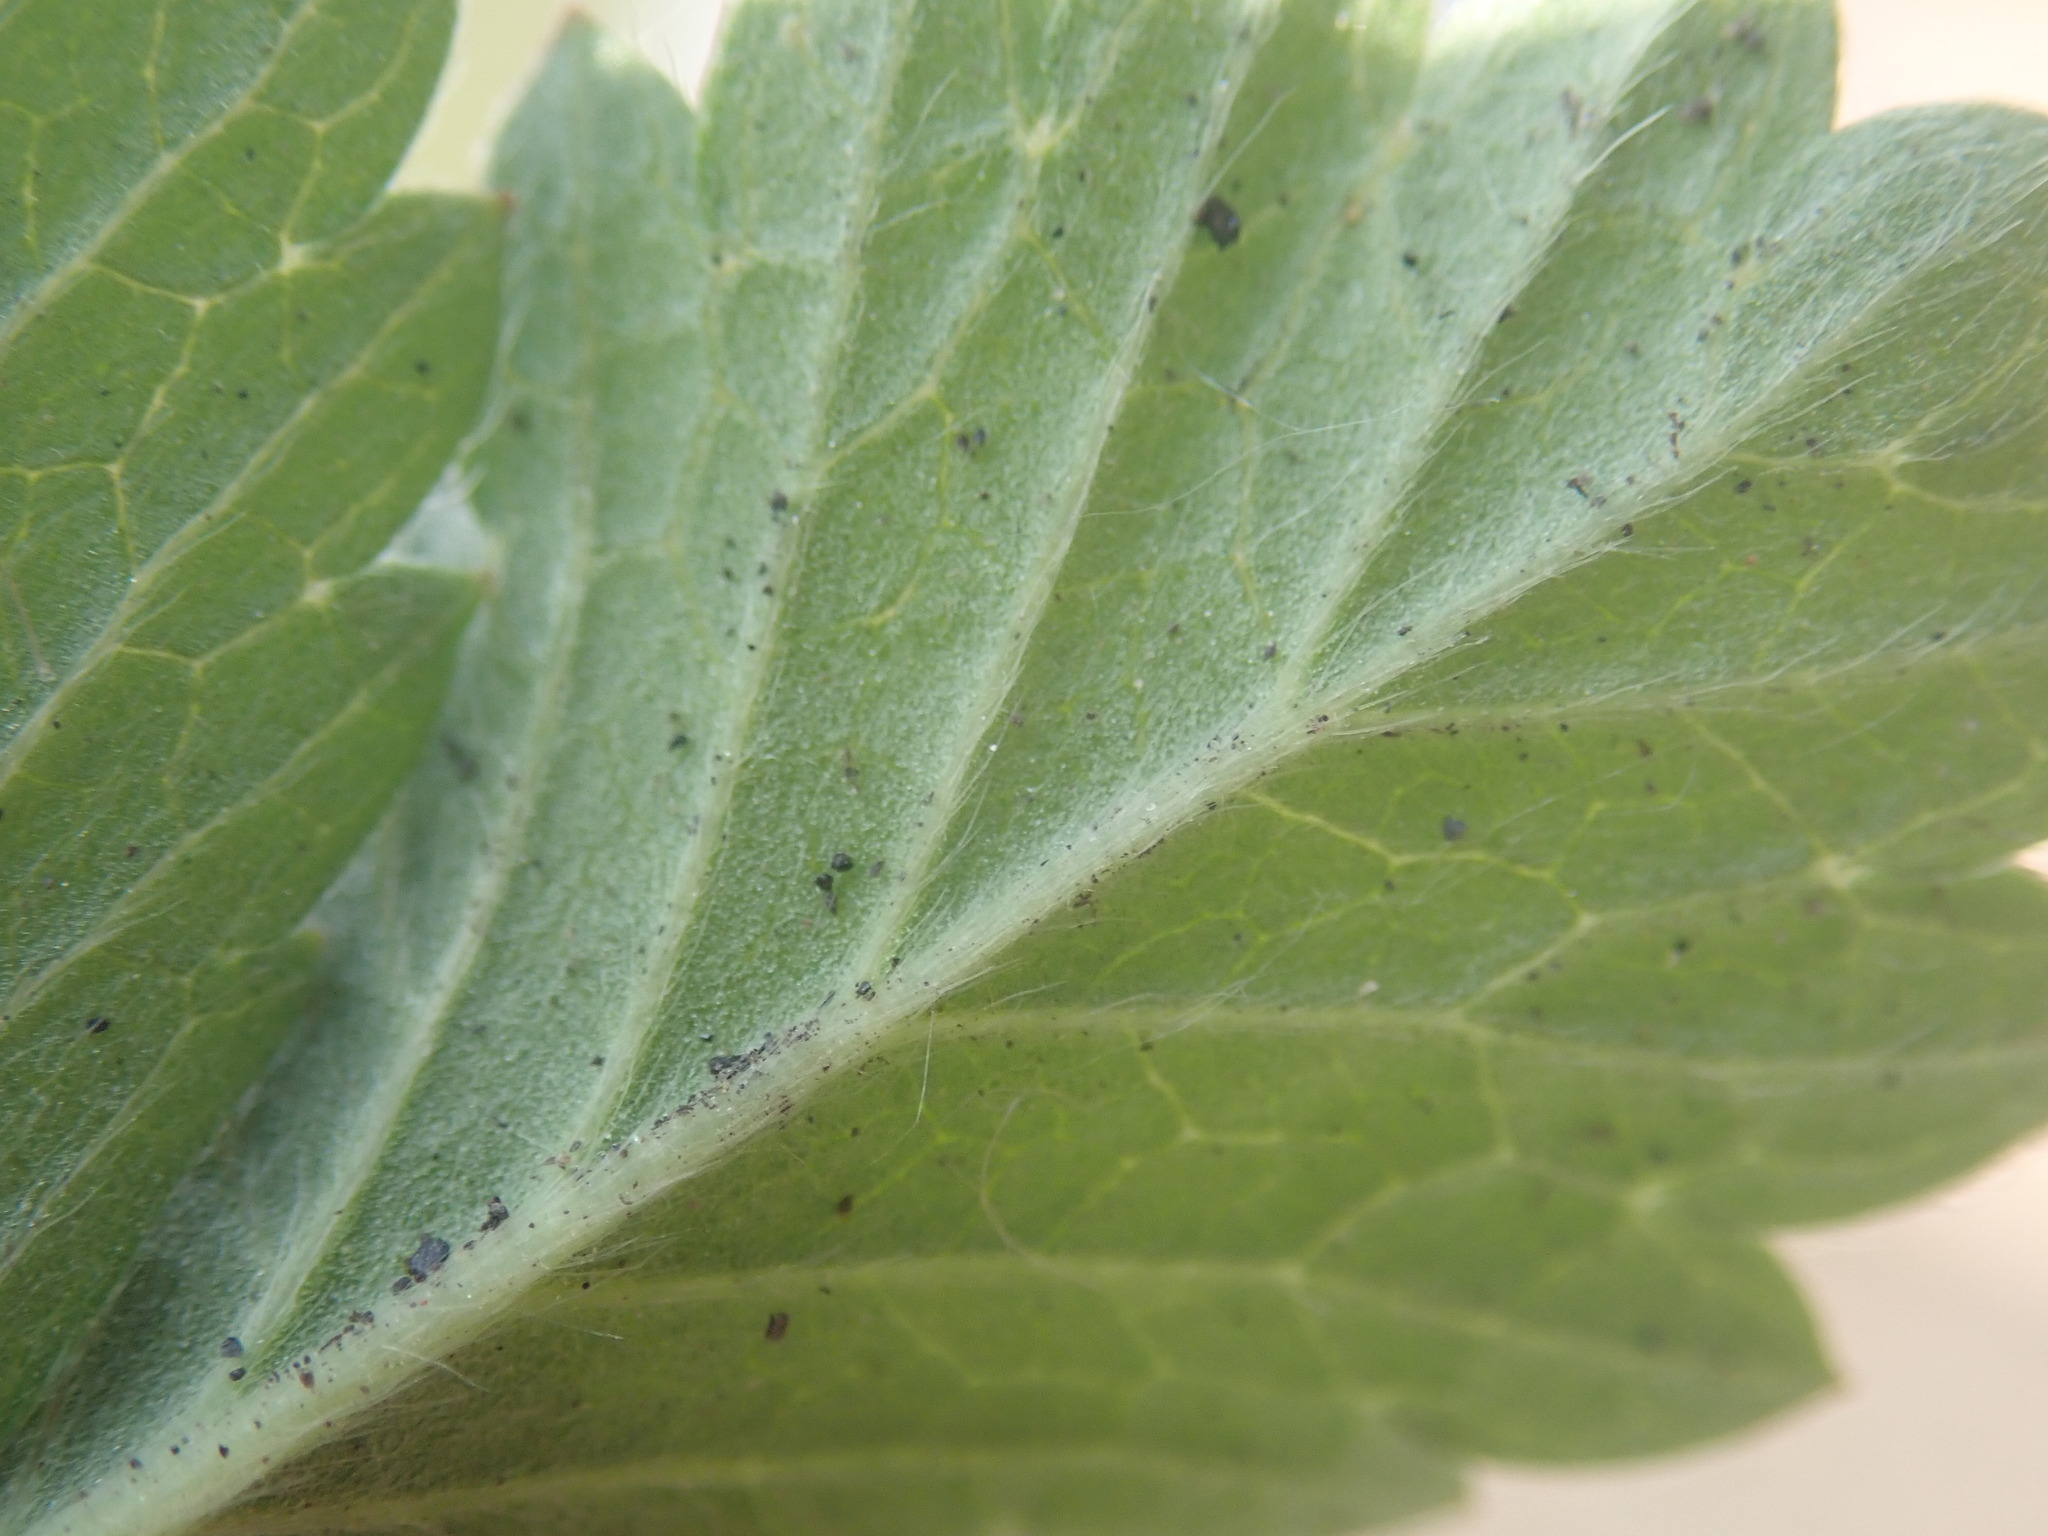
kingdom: Plantae
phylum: Tracheophyta
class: Magnoliopsida
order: Rosales
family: Rosaceae
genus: Potentilla
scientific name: Potentilla norvegica
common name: Ternate-leaved cinquefoil
